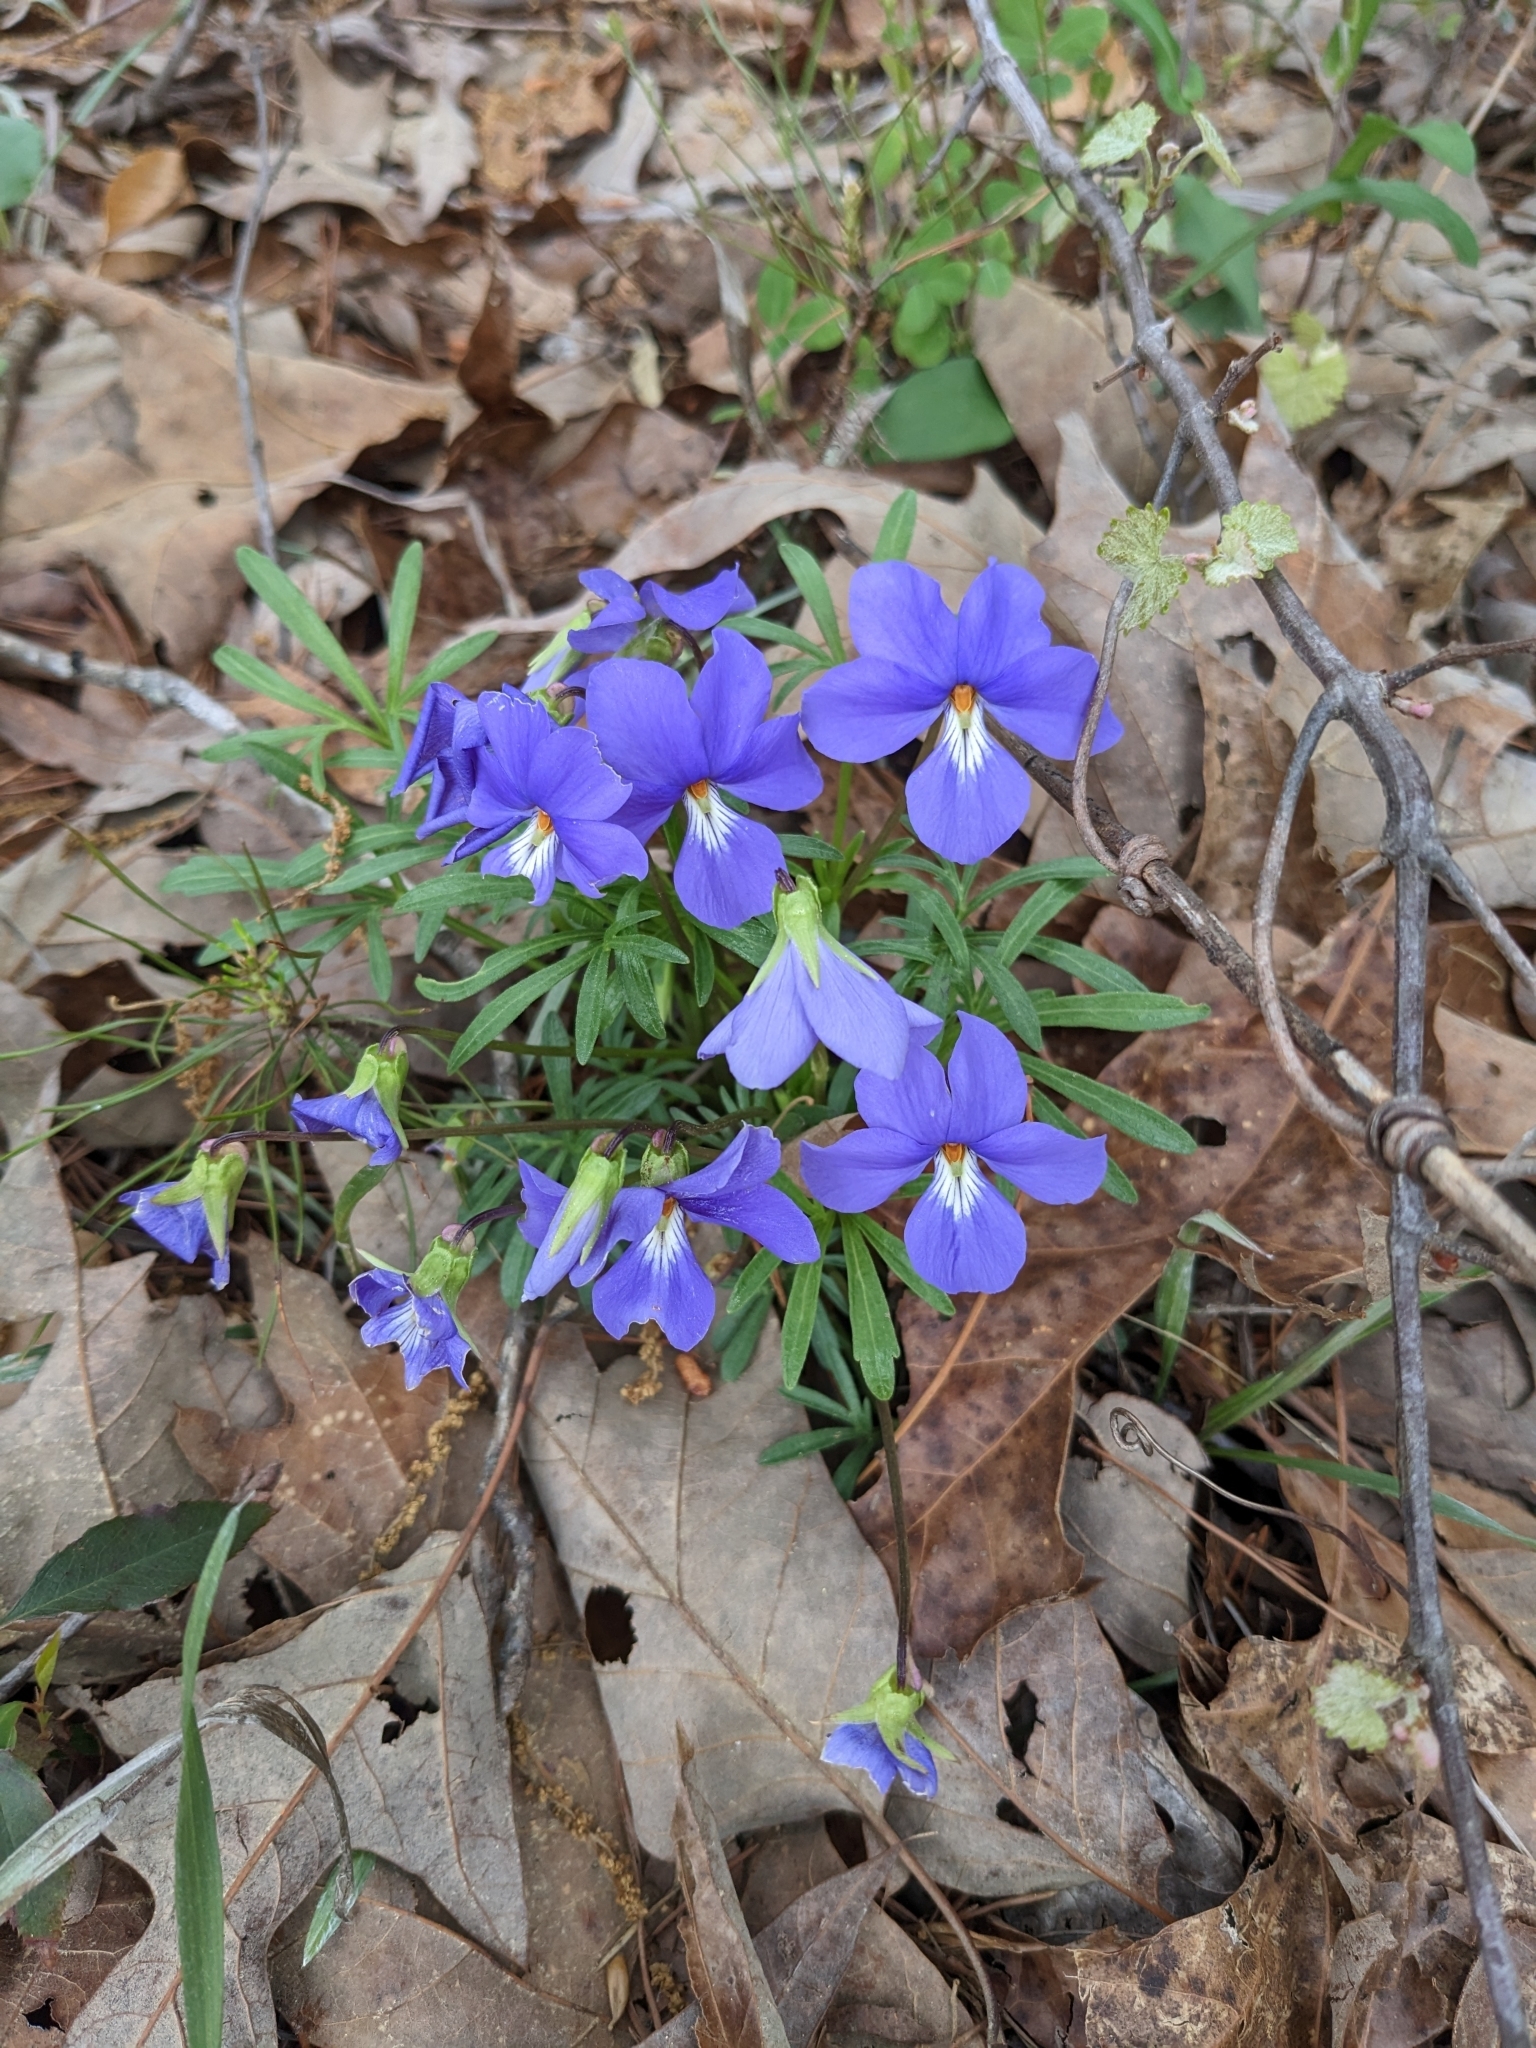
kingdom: Plantae
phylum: Tracheophyta
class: Magnoliopsida
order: Malpighiales
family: Violaceae
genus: Viola
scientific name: Viola pedata
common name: Pansy violet
